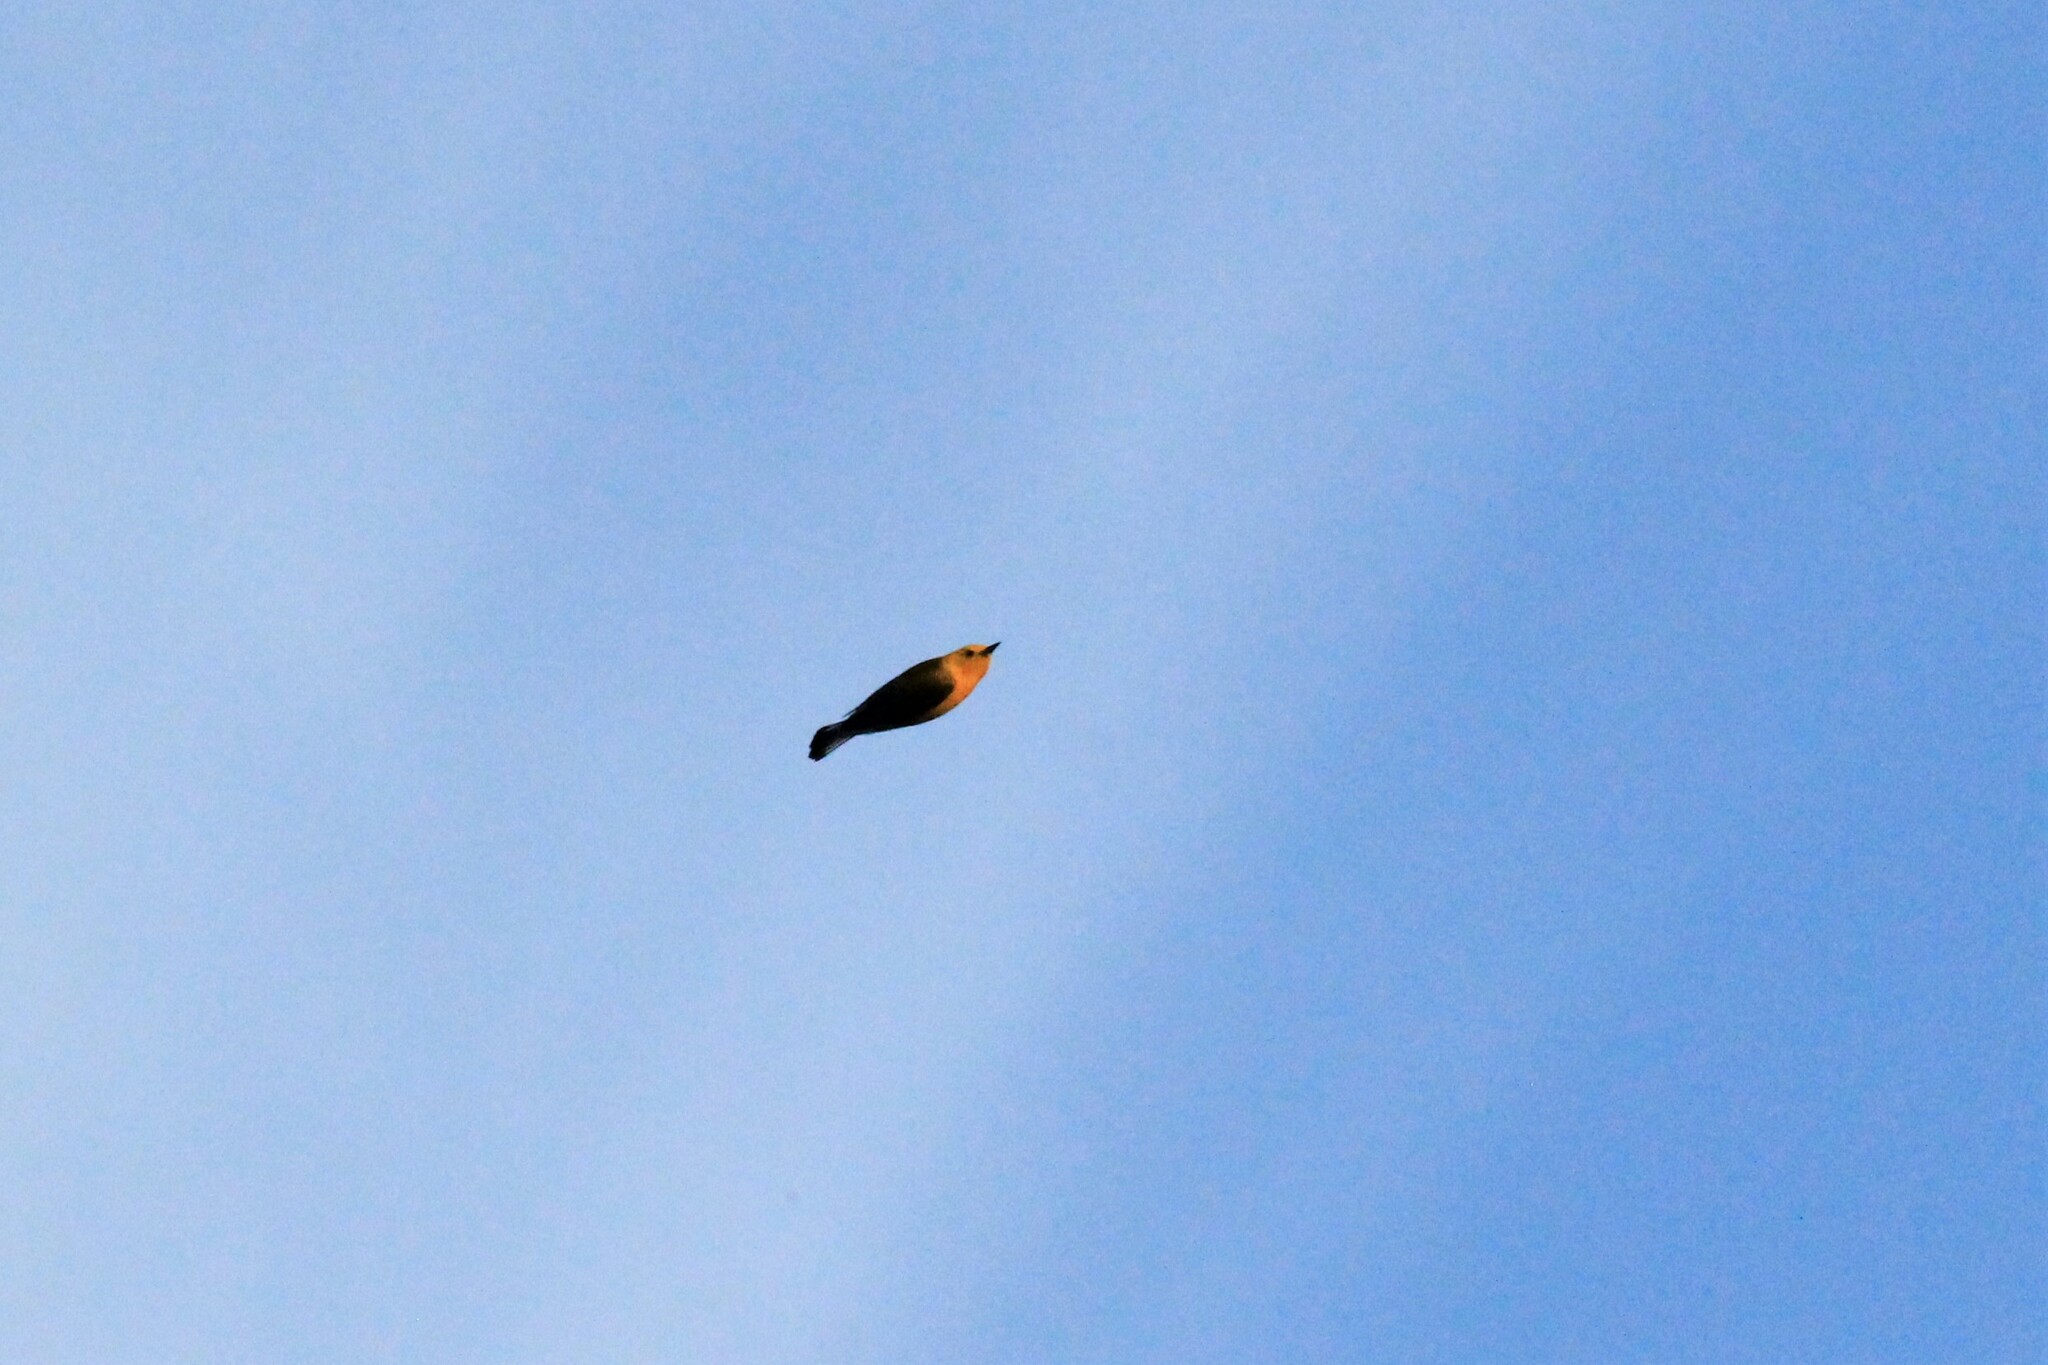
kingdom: Animalia
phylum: Chordata
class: Aves
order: Passeriformes
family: Parulidae
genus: Protonotaria
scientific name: Protonotaria citrea
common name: Prothonotary warbler
